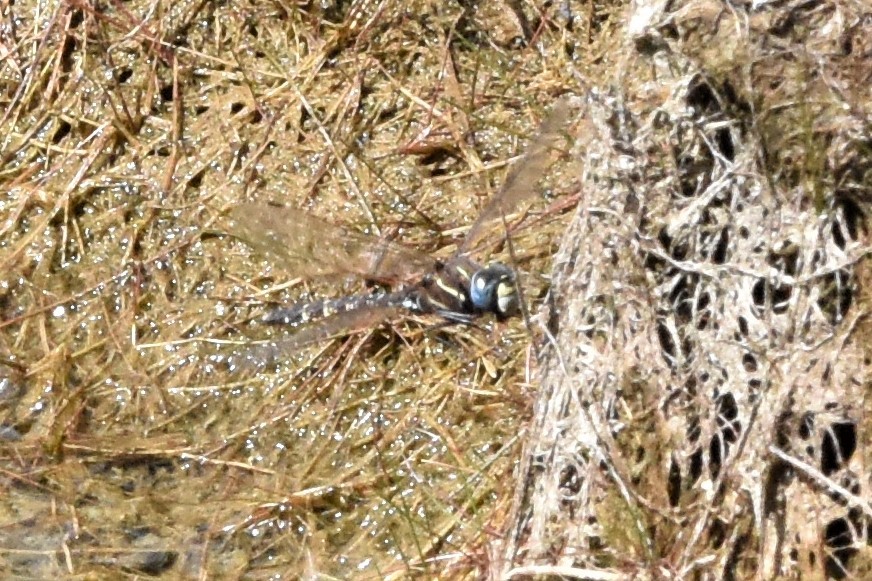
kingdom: Animalia
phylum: Arthropoda
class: Insecta
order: Odonata
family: Aeshnidae
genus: Aeshna
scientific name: Aeshna brevistyla
